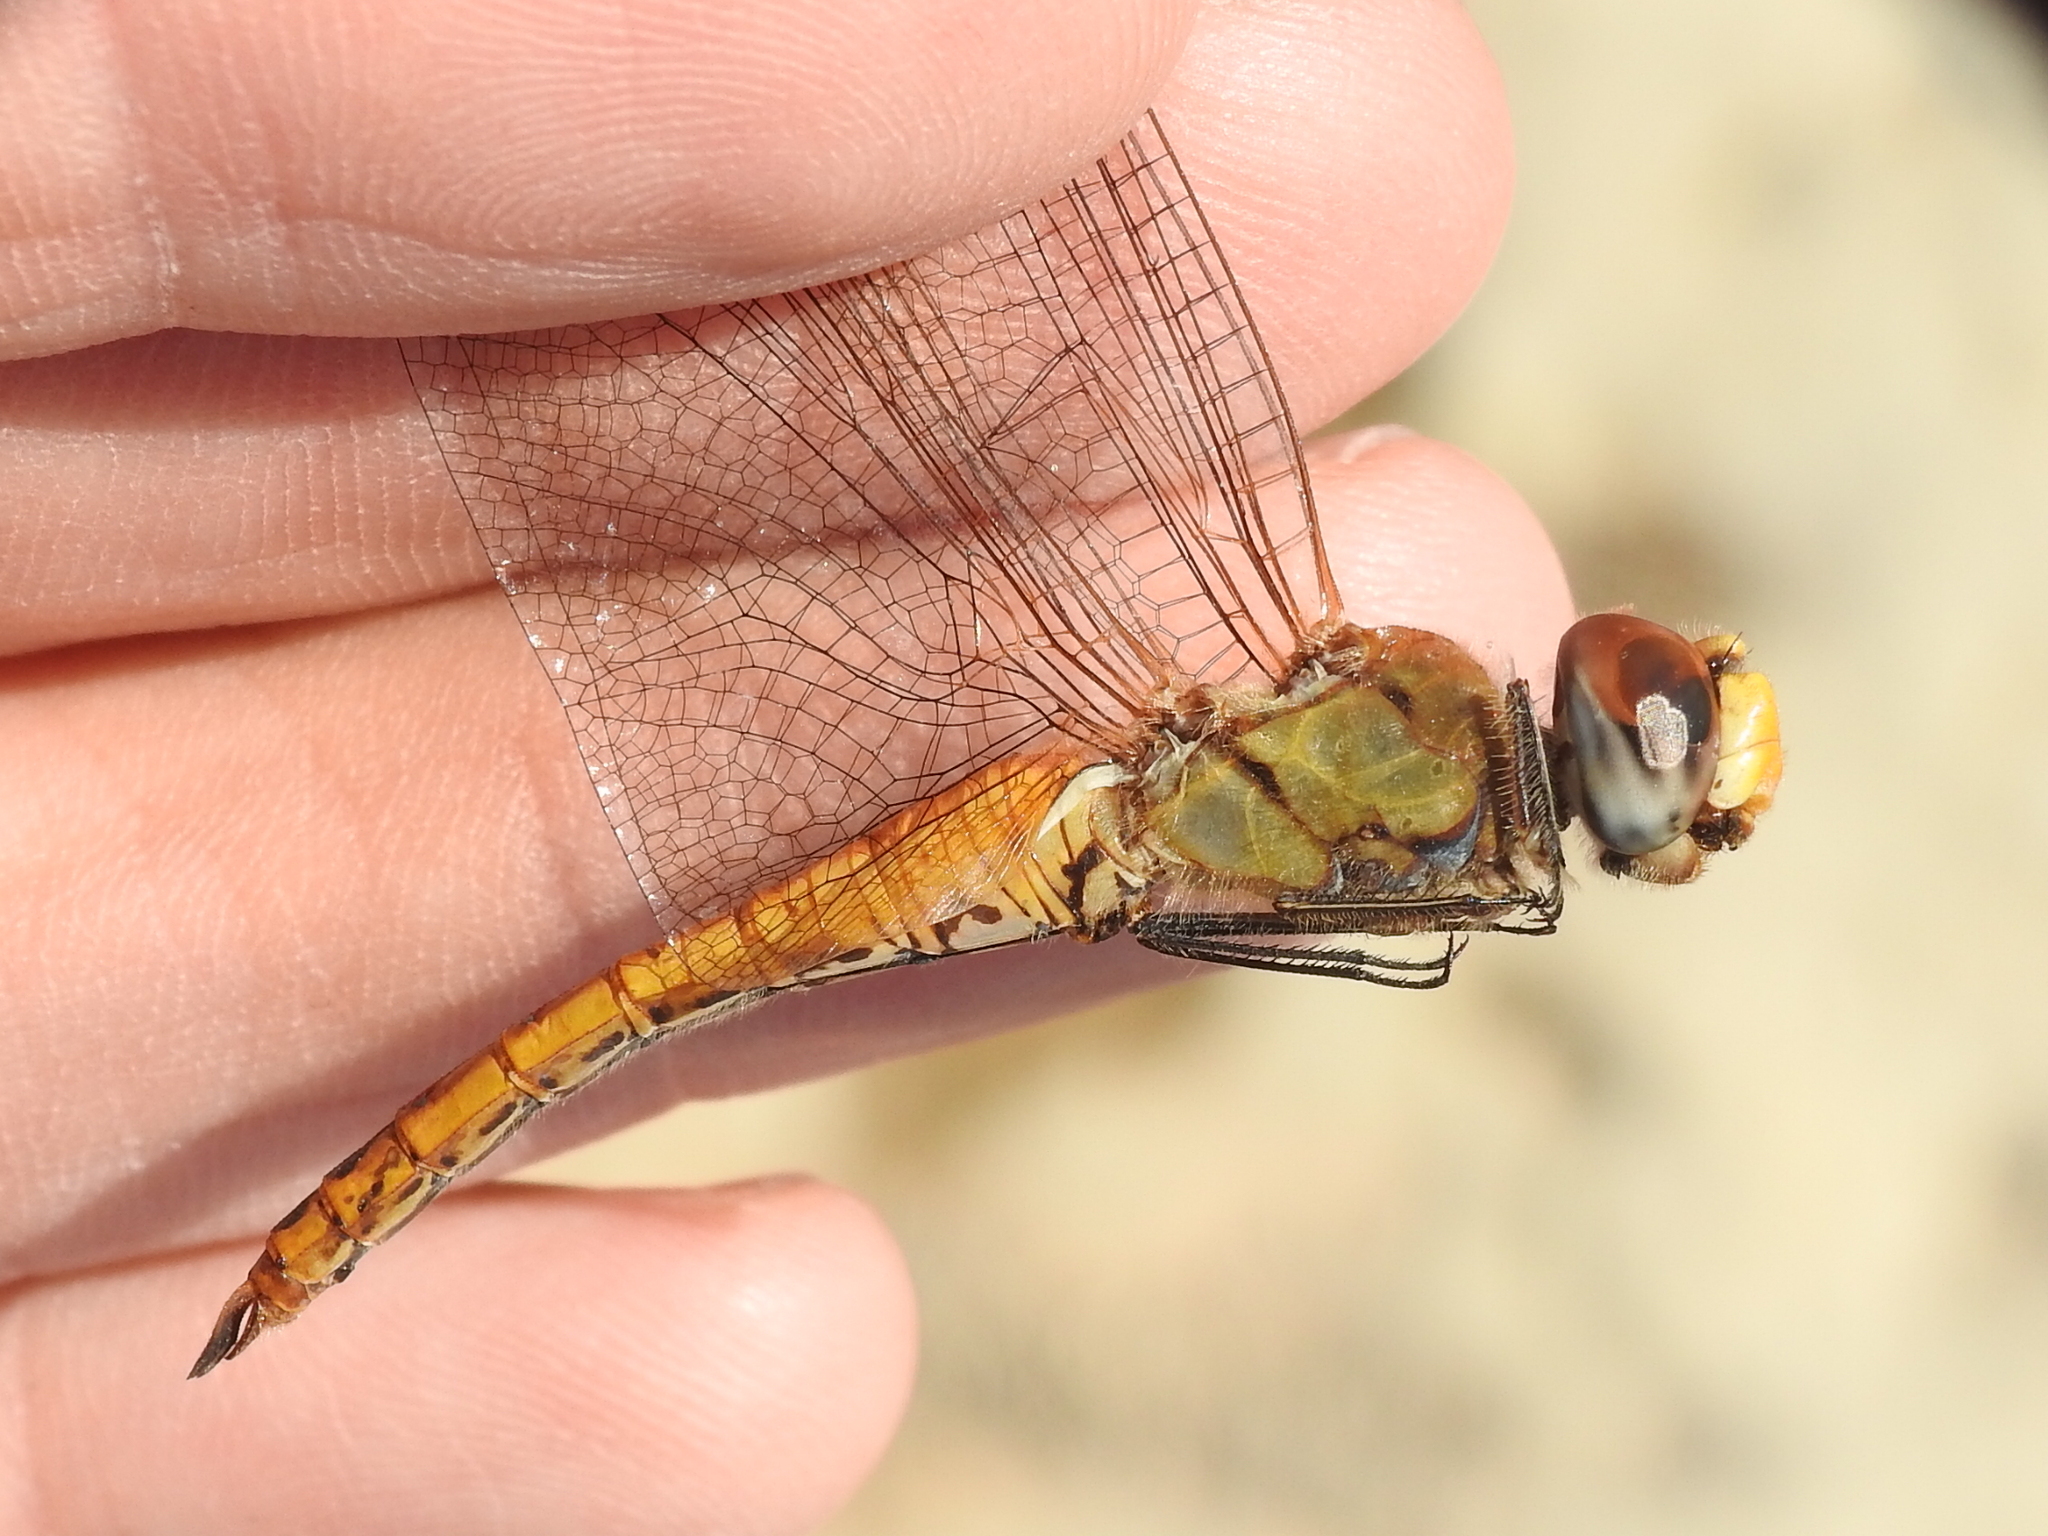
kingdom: Animalia
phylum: Arthropoda
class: Insecta
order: Odonata
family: Libellulidae
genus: Pantala
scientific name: Pantala flavescens
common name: Wandering glider
